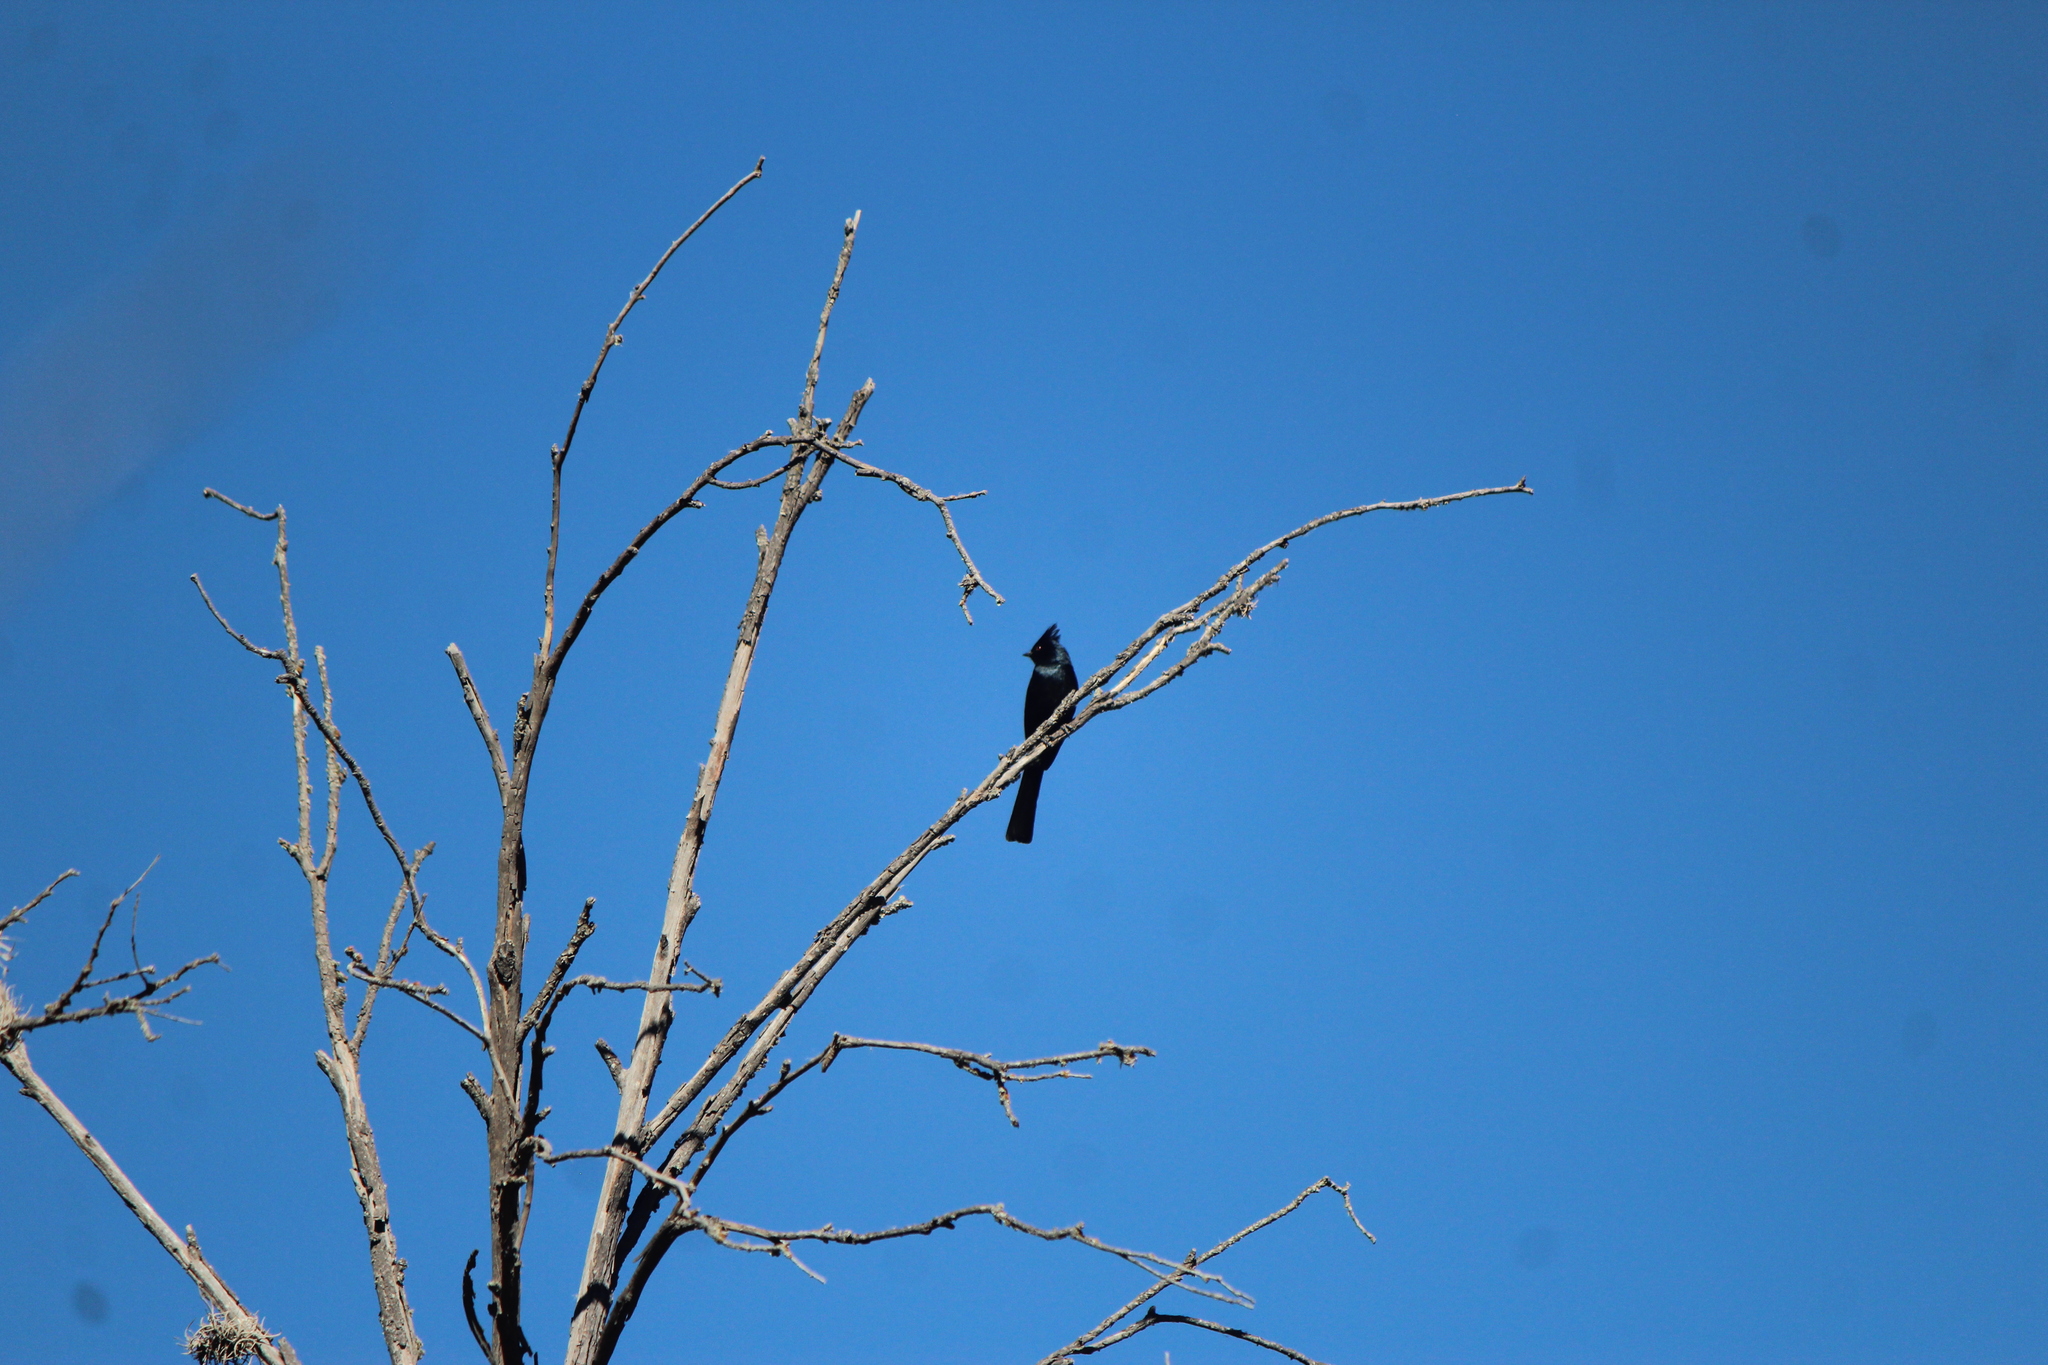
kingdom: Animalia
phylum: Chordata
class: Aves
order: Passeriformes
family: Ptilogonatidae
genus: Phainopepla
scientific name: Phainopepla nitens
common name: Phainopepla
